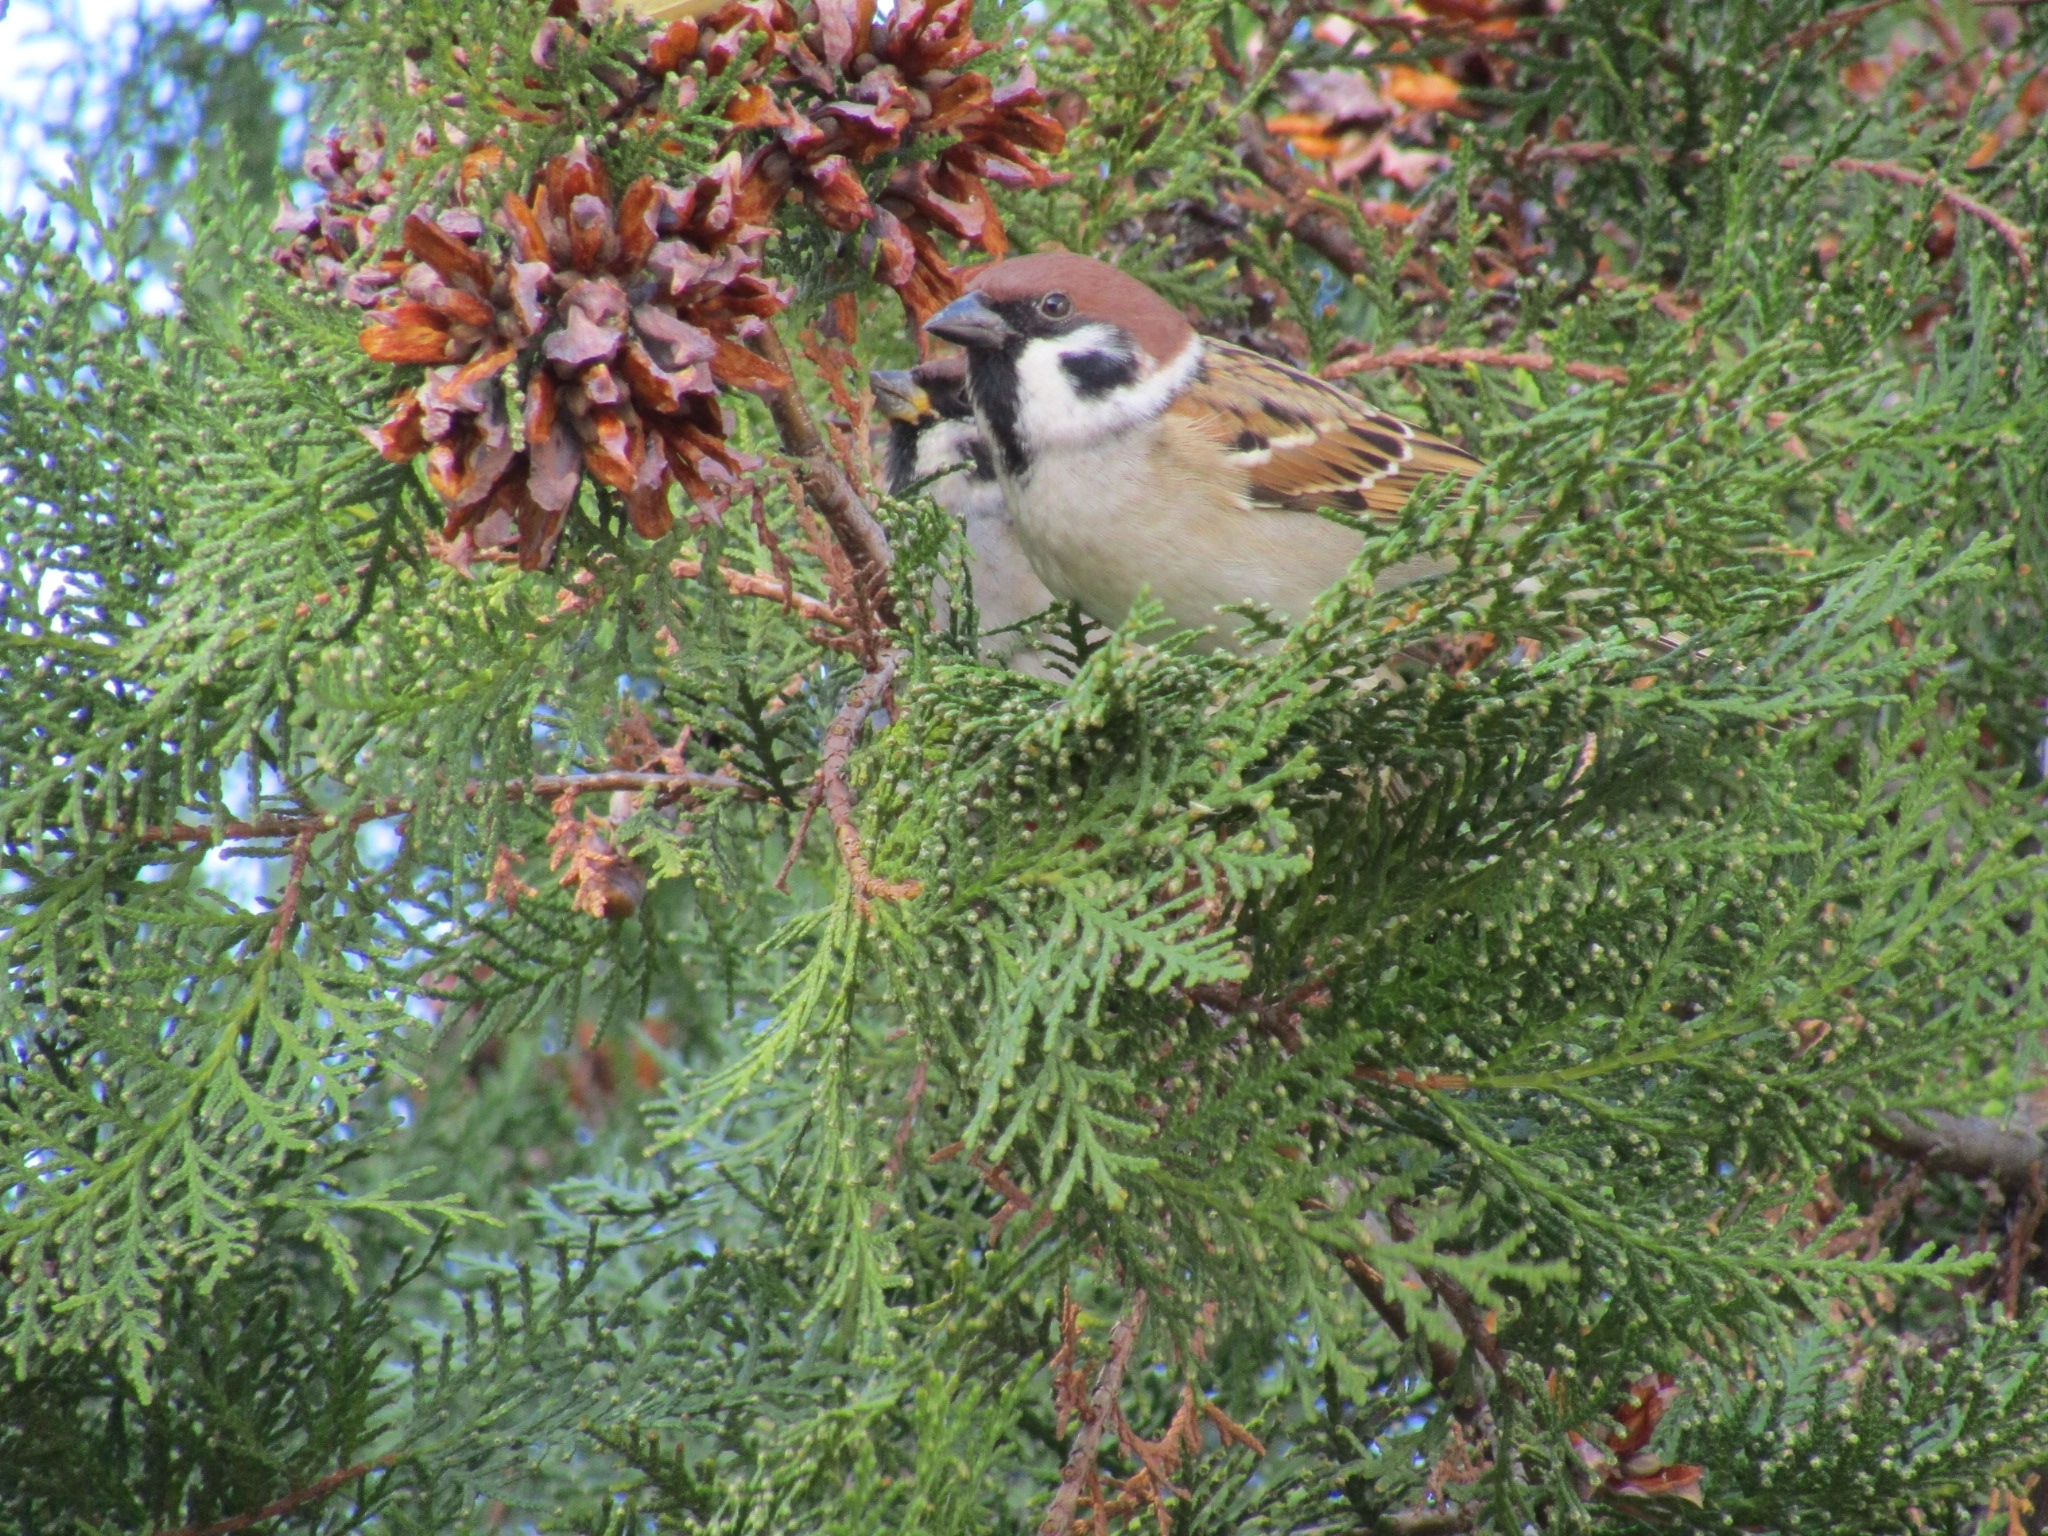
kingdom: Animalia
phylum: Chordata
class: Aves
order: Passeriformes
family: Passeridae
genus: Passer
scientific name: Passer montanus
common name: Eurasian tree sparrow
